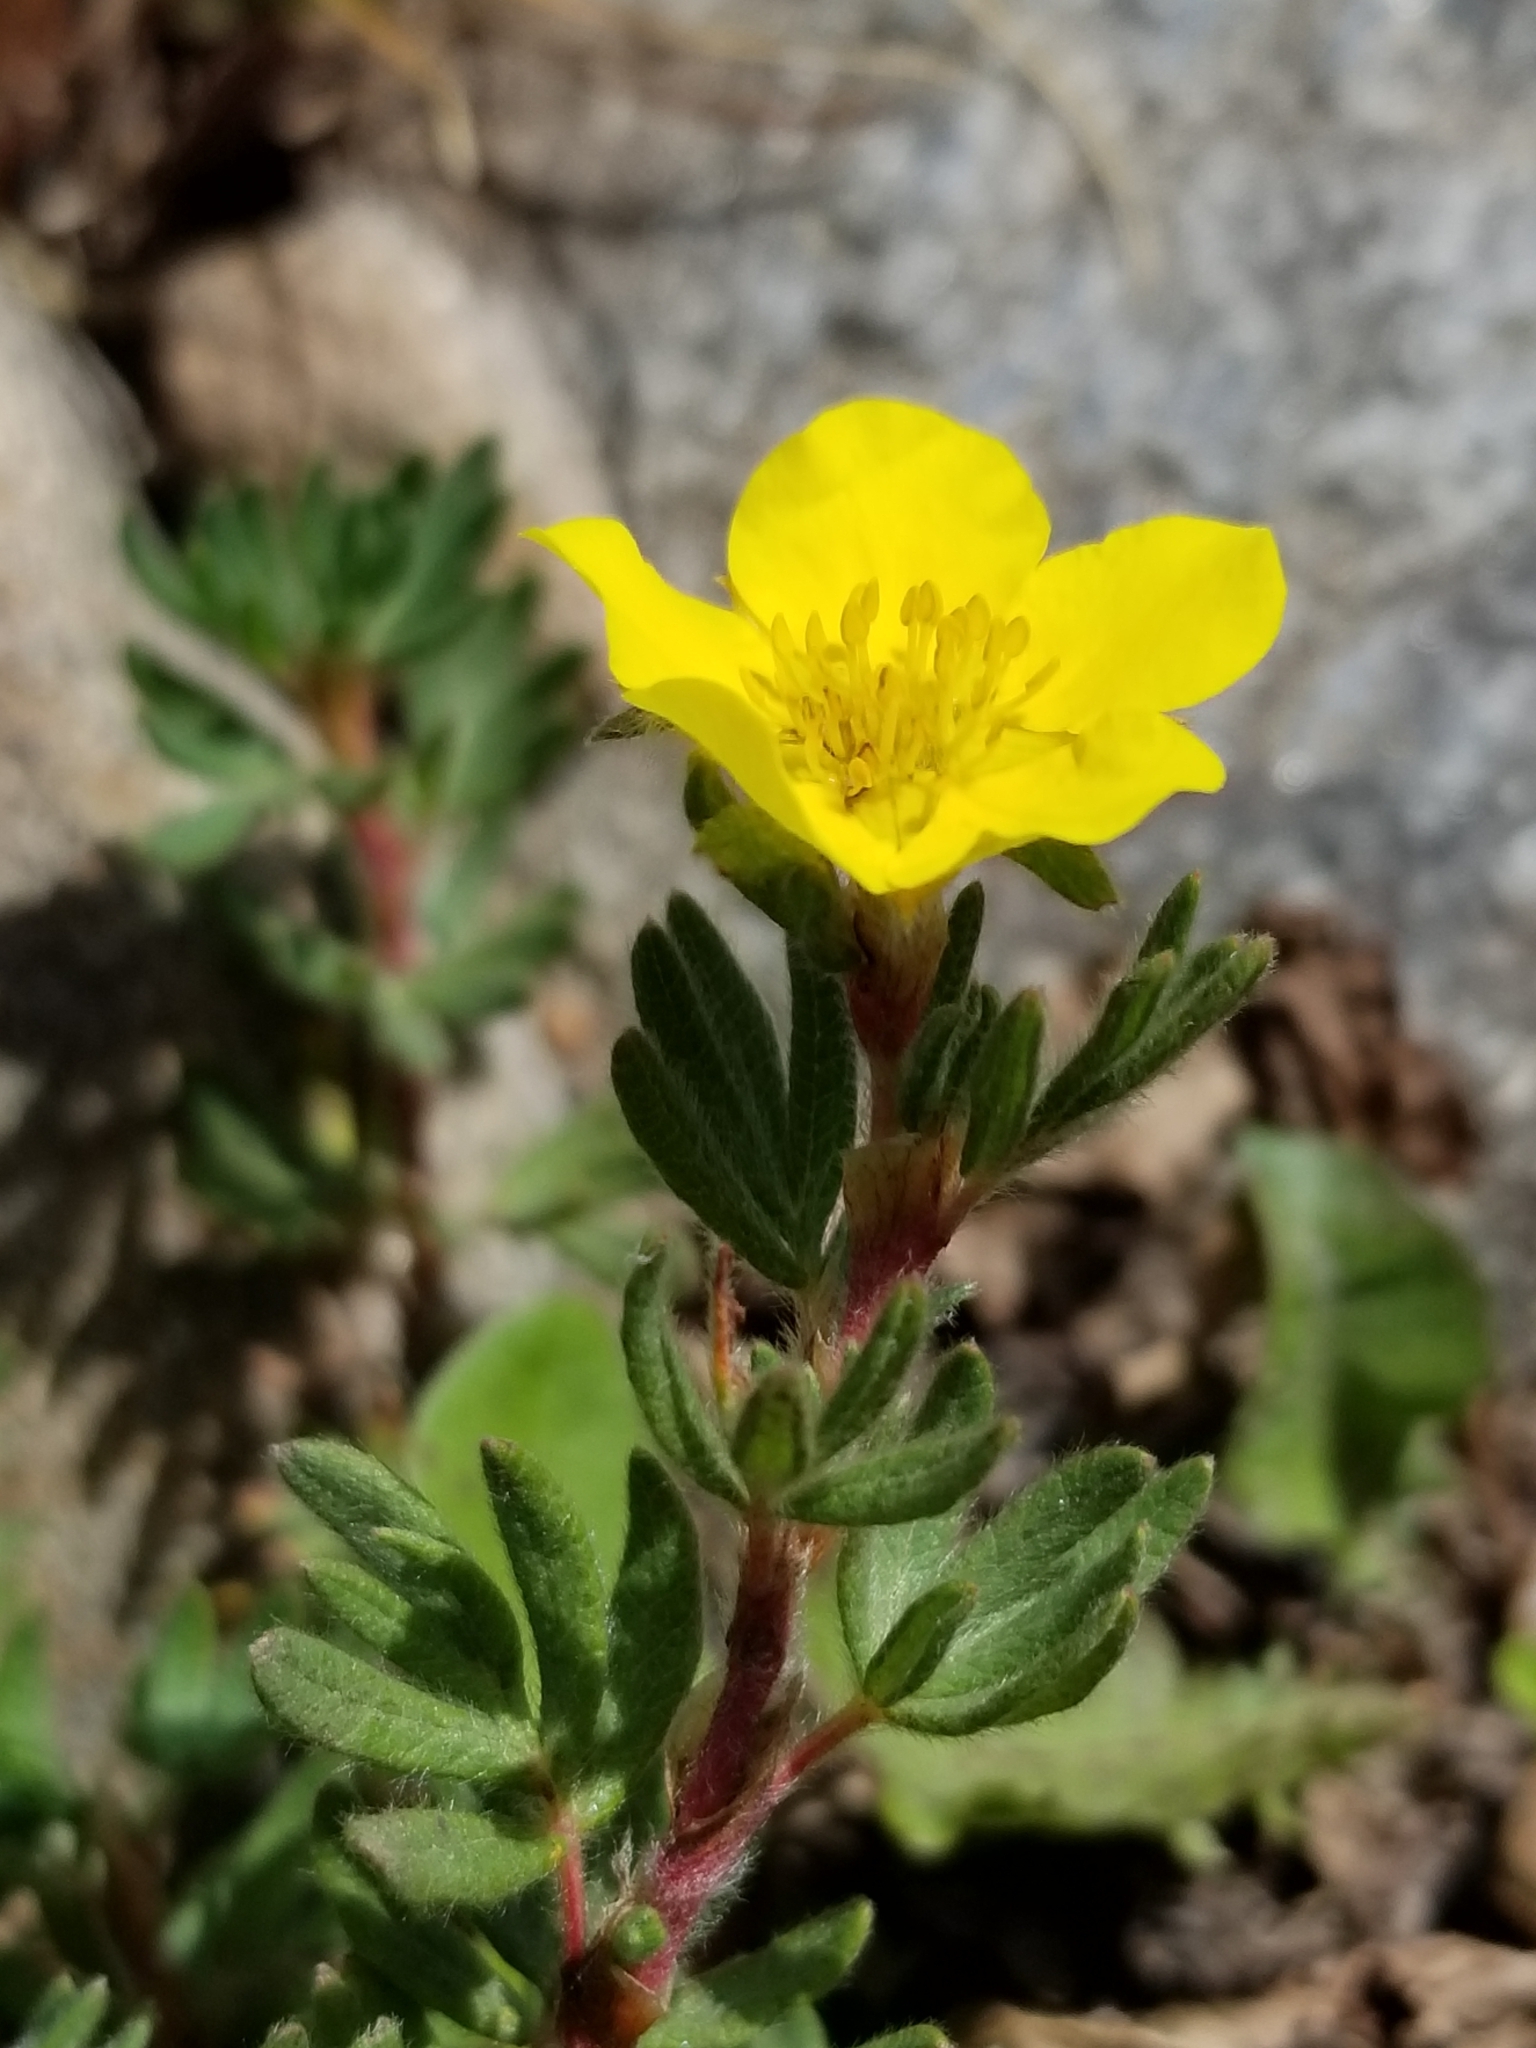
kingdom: Plantae
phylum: Tracheophyta
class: Magnoliopsida
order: Rosales
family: Rosaceae
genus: Dasiphora
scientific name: Dasiphora fruticosa
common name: Shrubby cinquefoil
